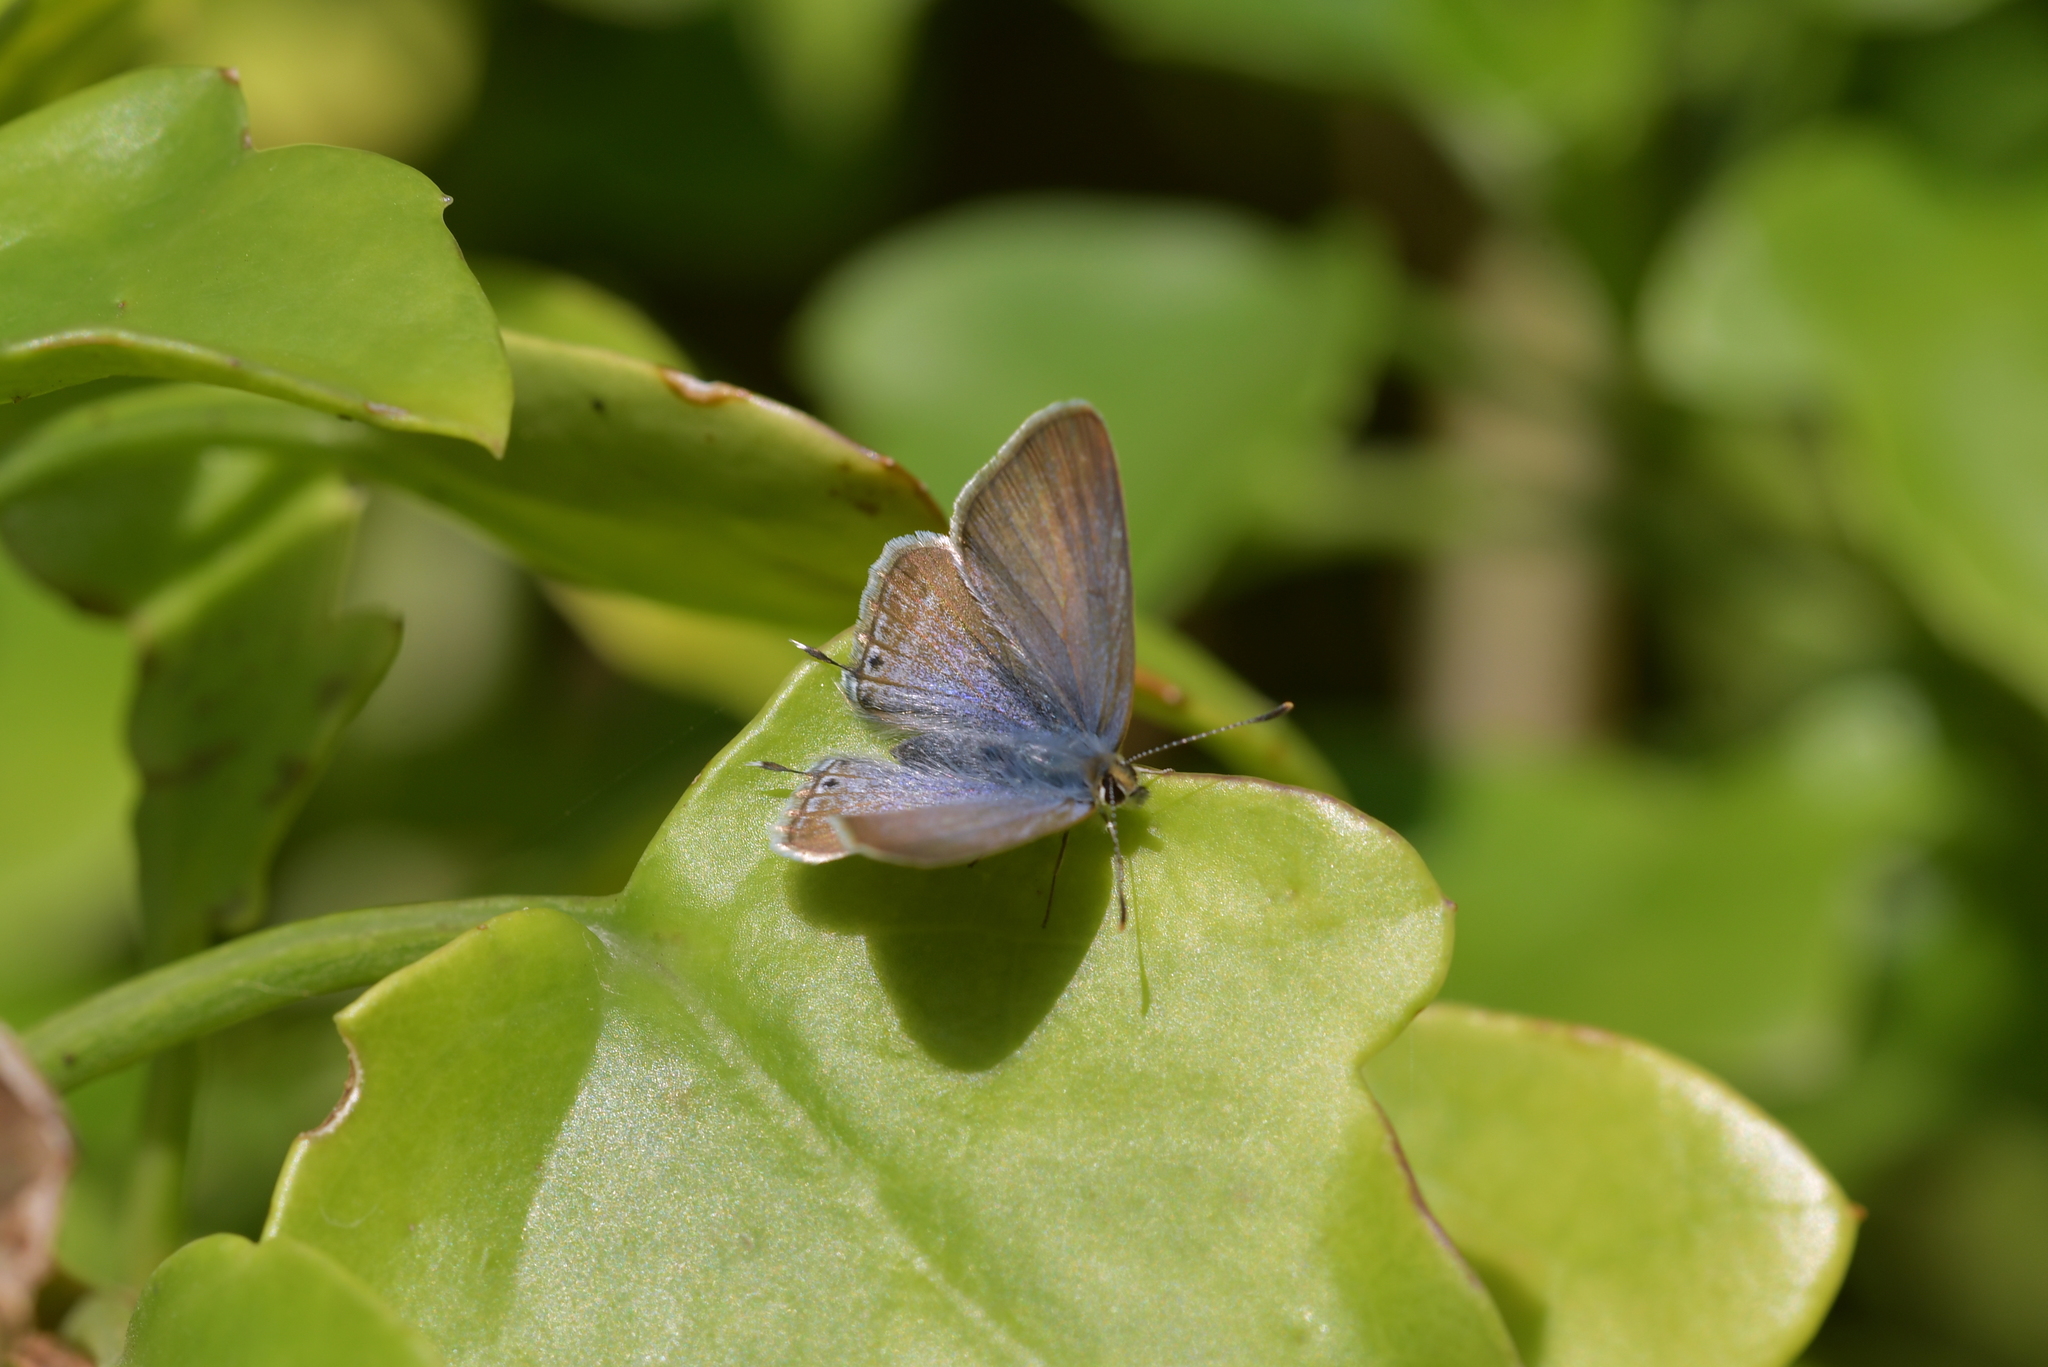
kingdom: Animalia
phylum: Arthropoda
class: Insecta
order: Lepidoptera
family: Lycaenidae
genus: Lampides
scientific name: Lampides boeticus
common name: Long-tailed blue
